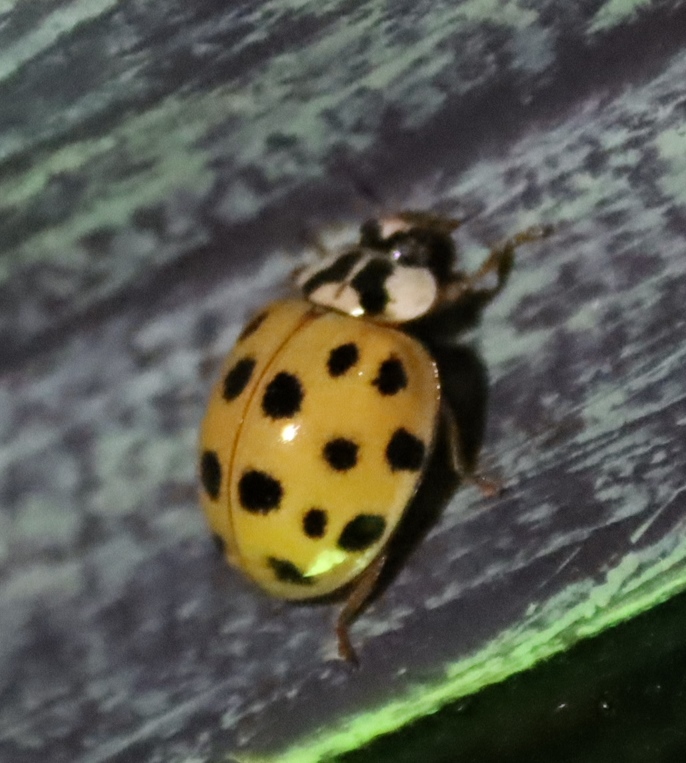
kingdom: Animalia
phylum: Arthropoda
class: Insecta
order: Coleoptera
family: Coccinellidae
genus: Harmonia
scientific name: Harmonia axyridis
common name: Harlequin ladybird
